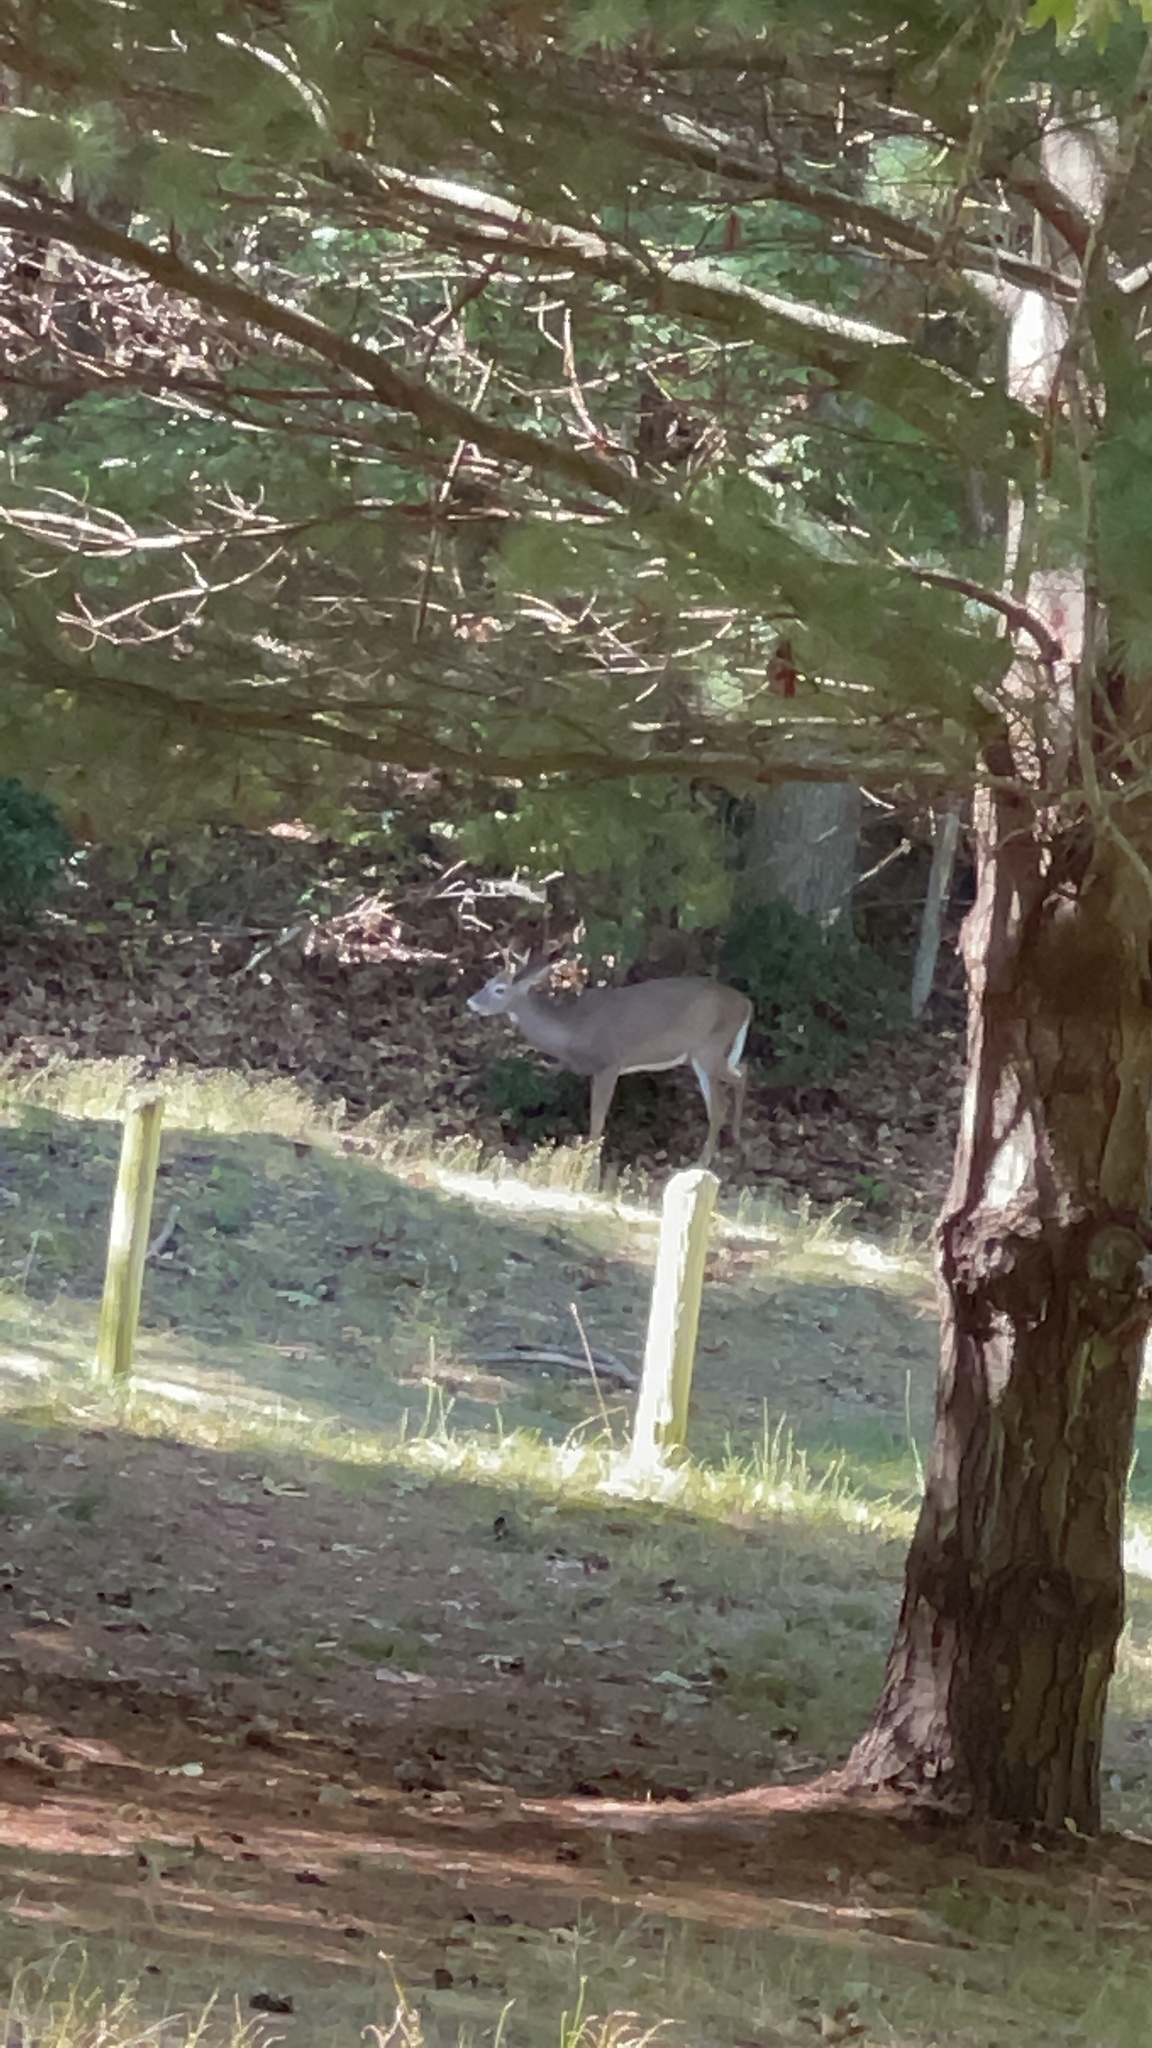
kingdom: Animalia
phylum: Chordata
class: Mammalia
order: Artiodactyla
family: Cervidae
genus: Odocoileus
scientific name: Odocoileus virginianus
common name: White-tailed deer
